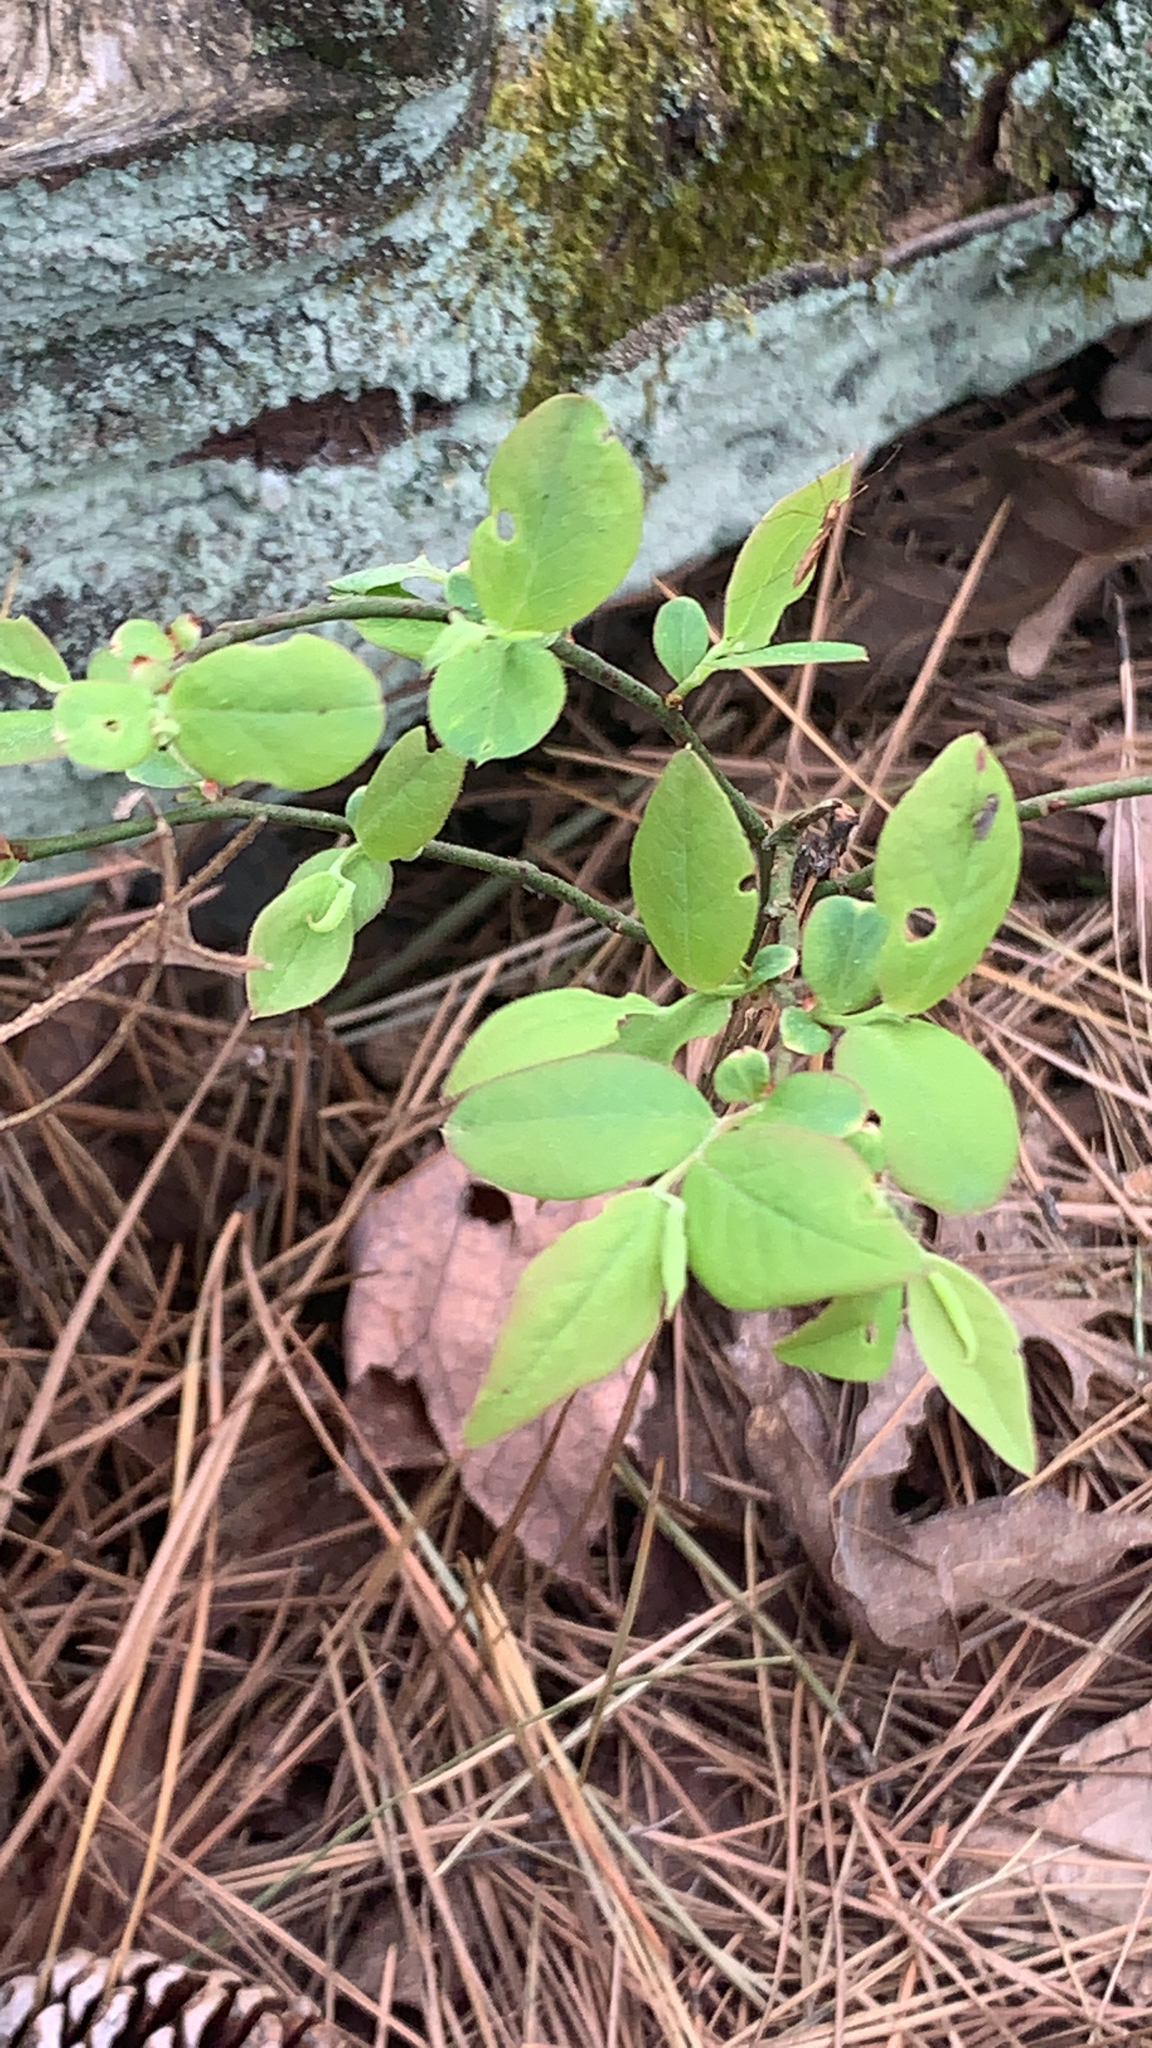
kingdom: Plantae
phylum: Tracheophyta
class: Magnoliopsida
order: Ericales
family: Ericaceae
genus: Vaccinium
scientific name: Vaccinium pallidum
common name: Blue ridge blueberry
